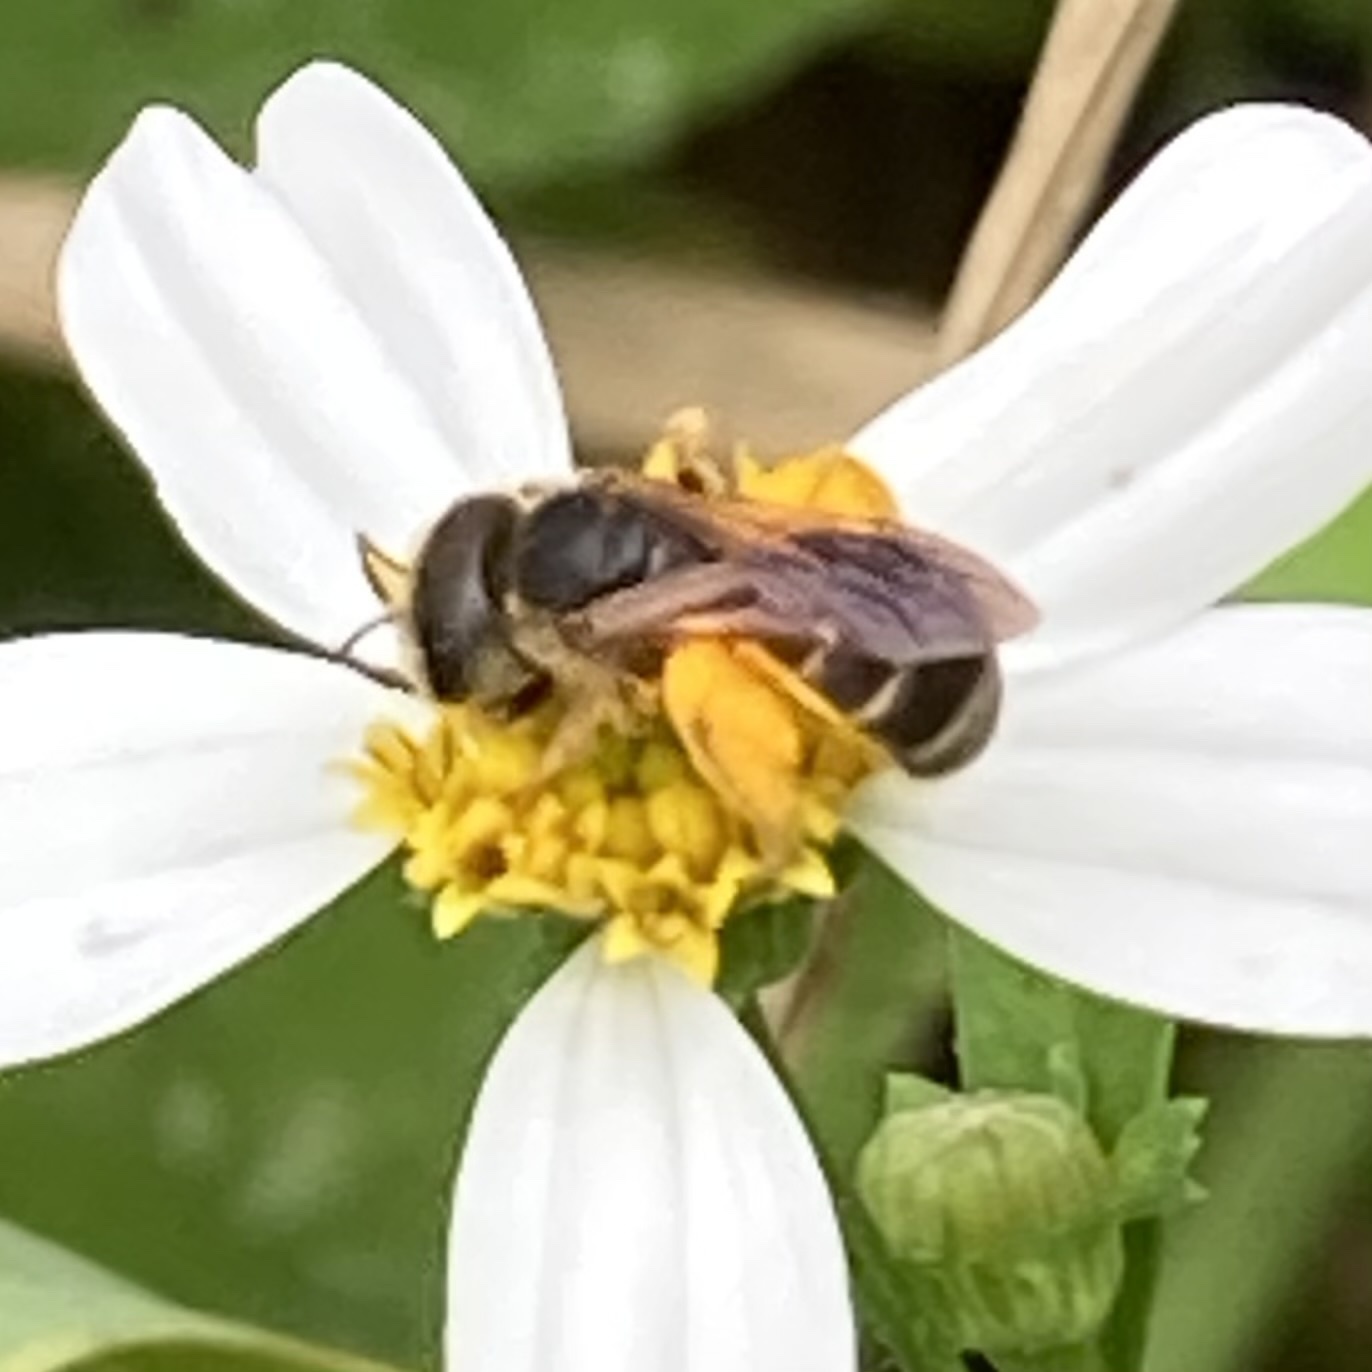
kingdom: Animalia
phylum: Arthropoda
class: Insecta
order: Hymenoptera
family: Halictidae
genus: Halictus
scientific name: Halictus poeyi
